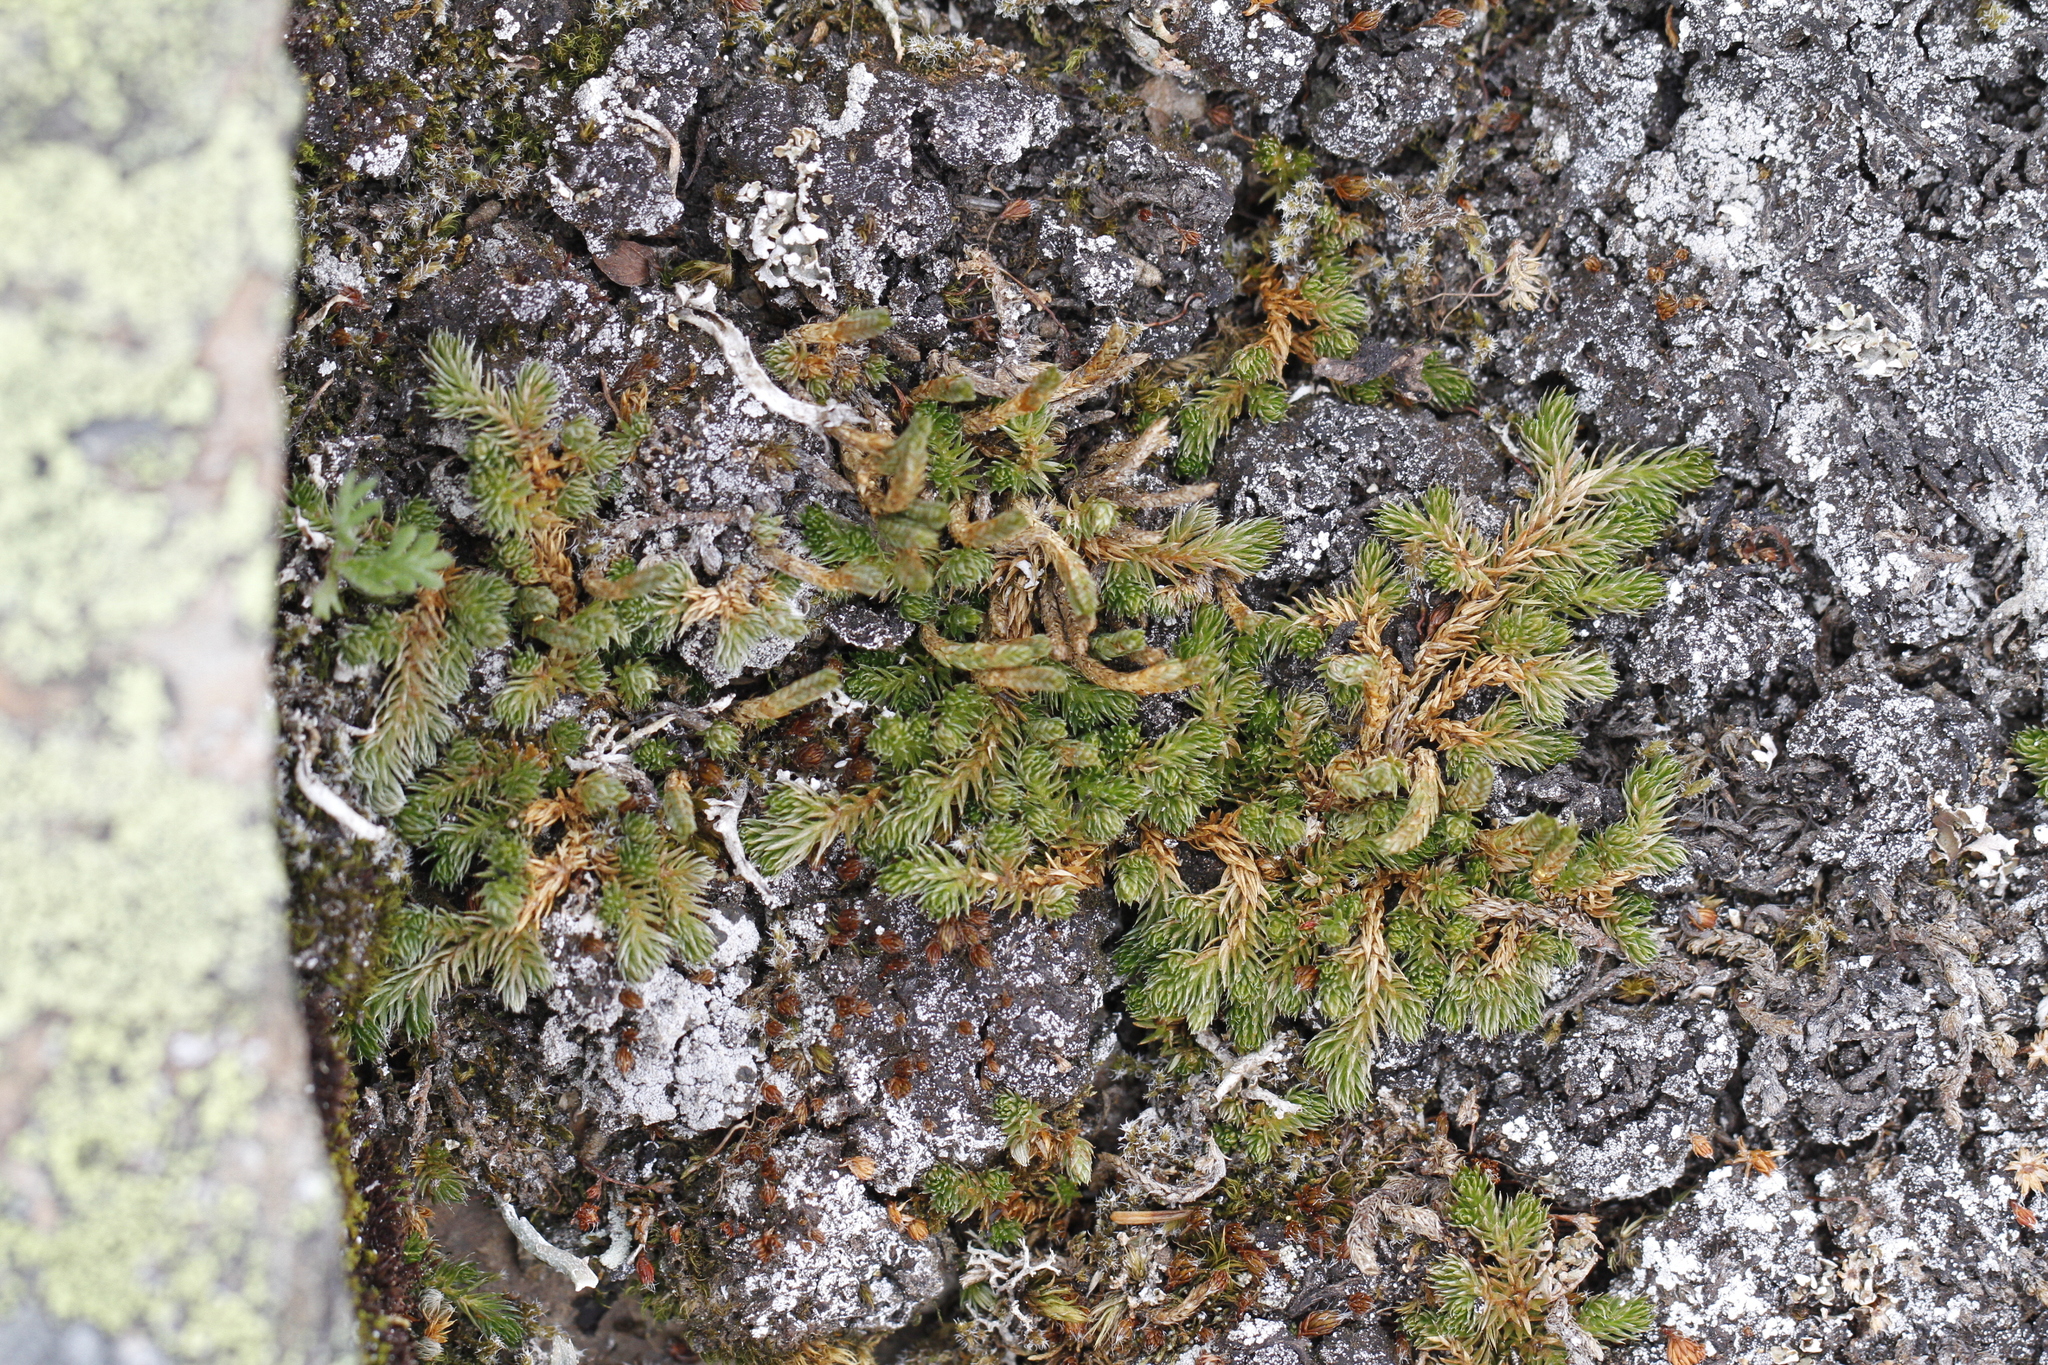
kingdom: Plantae
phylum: Tracheophyta
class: Lycopodiopsida
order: Selaginellales
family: Selaginellaceae
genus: Selaginella
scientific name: Selaginella densa
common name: Mountain spike-moss
